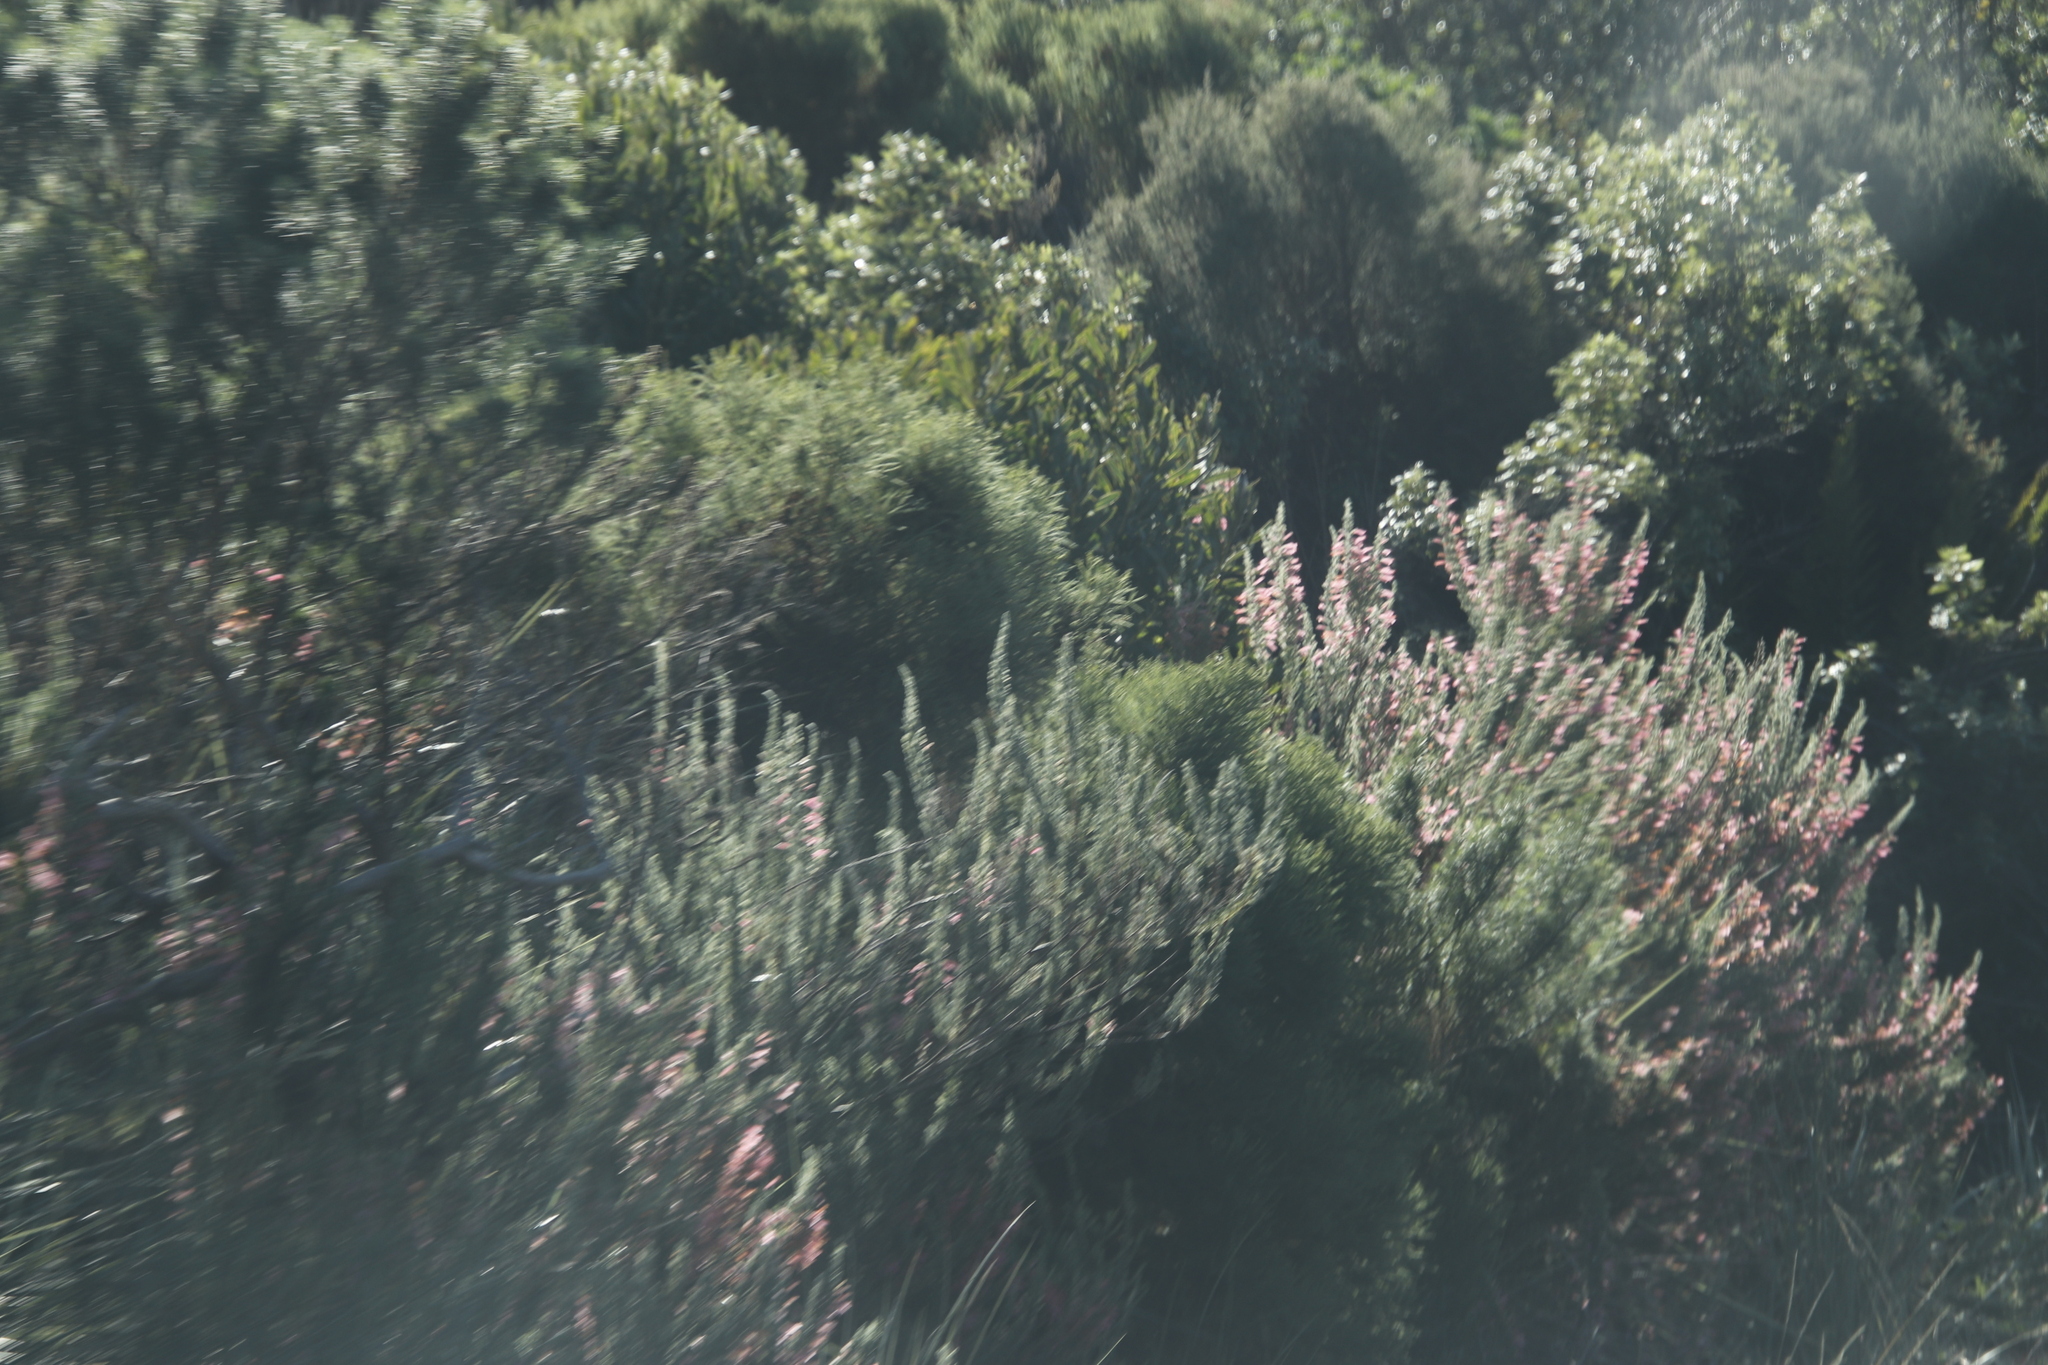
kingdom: Plantae
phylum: Tracheophyta
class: Magnoliopsida
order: Ericales
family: Ericaceae
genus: Erica
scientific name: Erica curviflora
